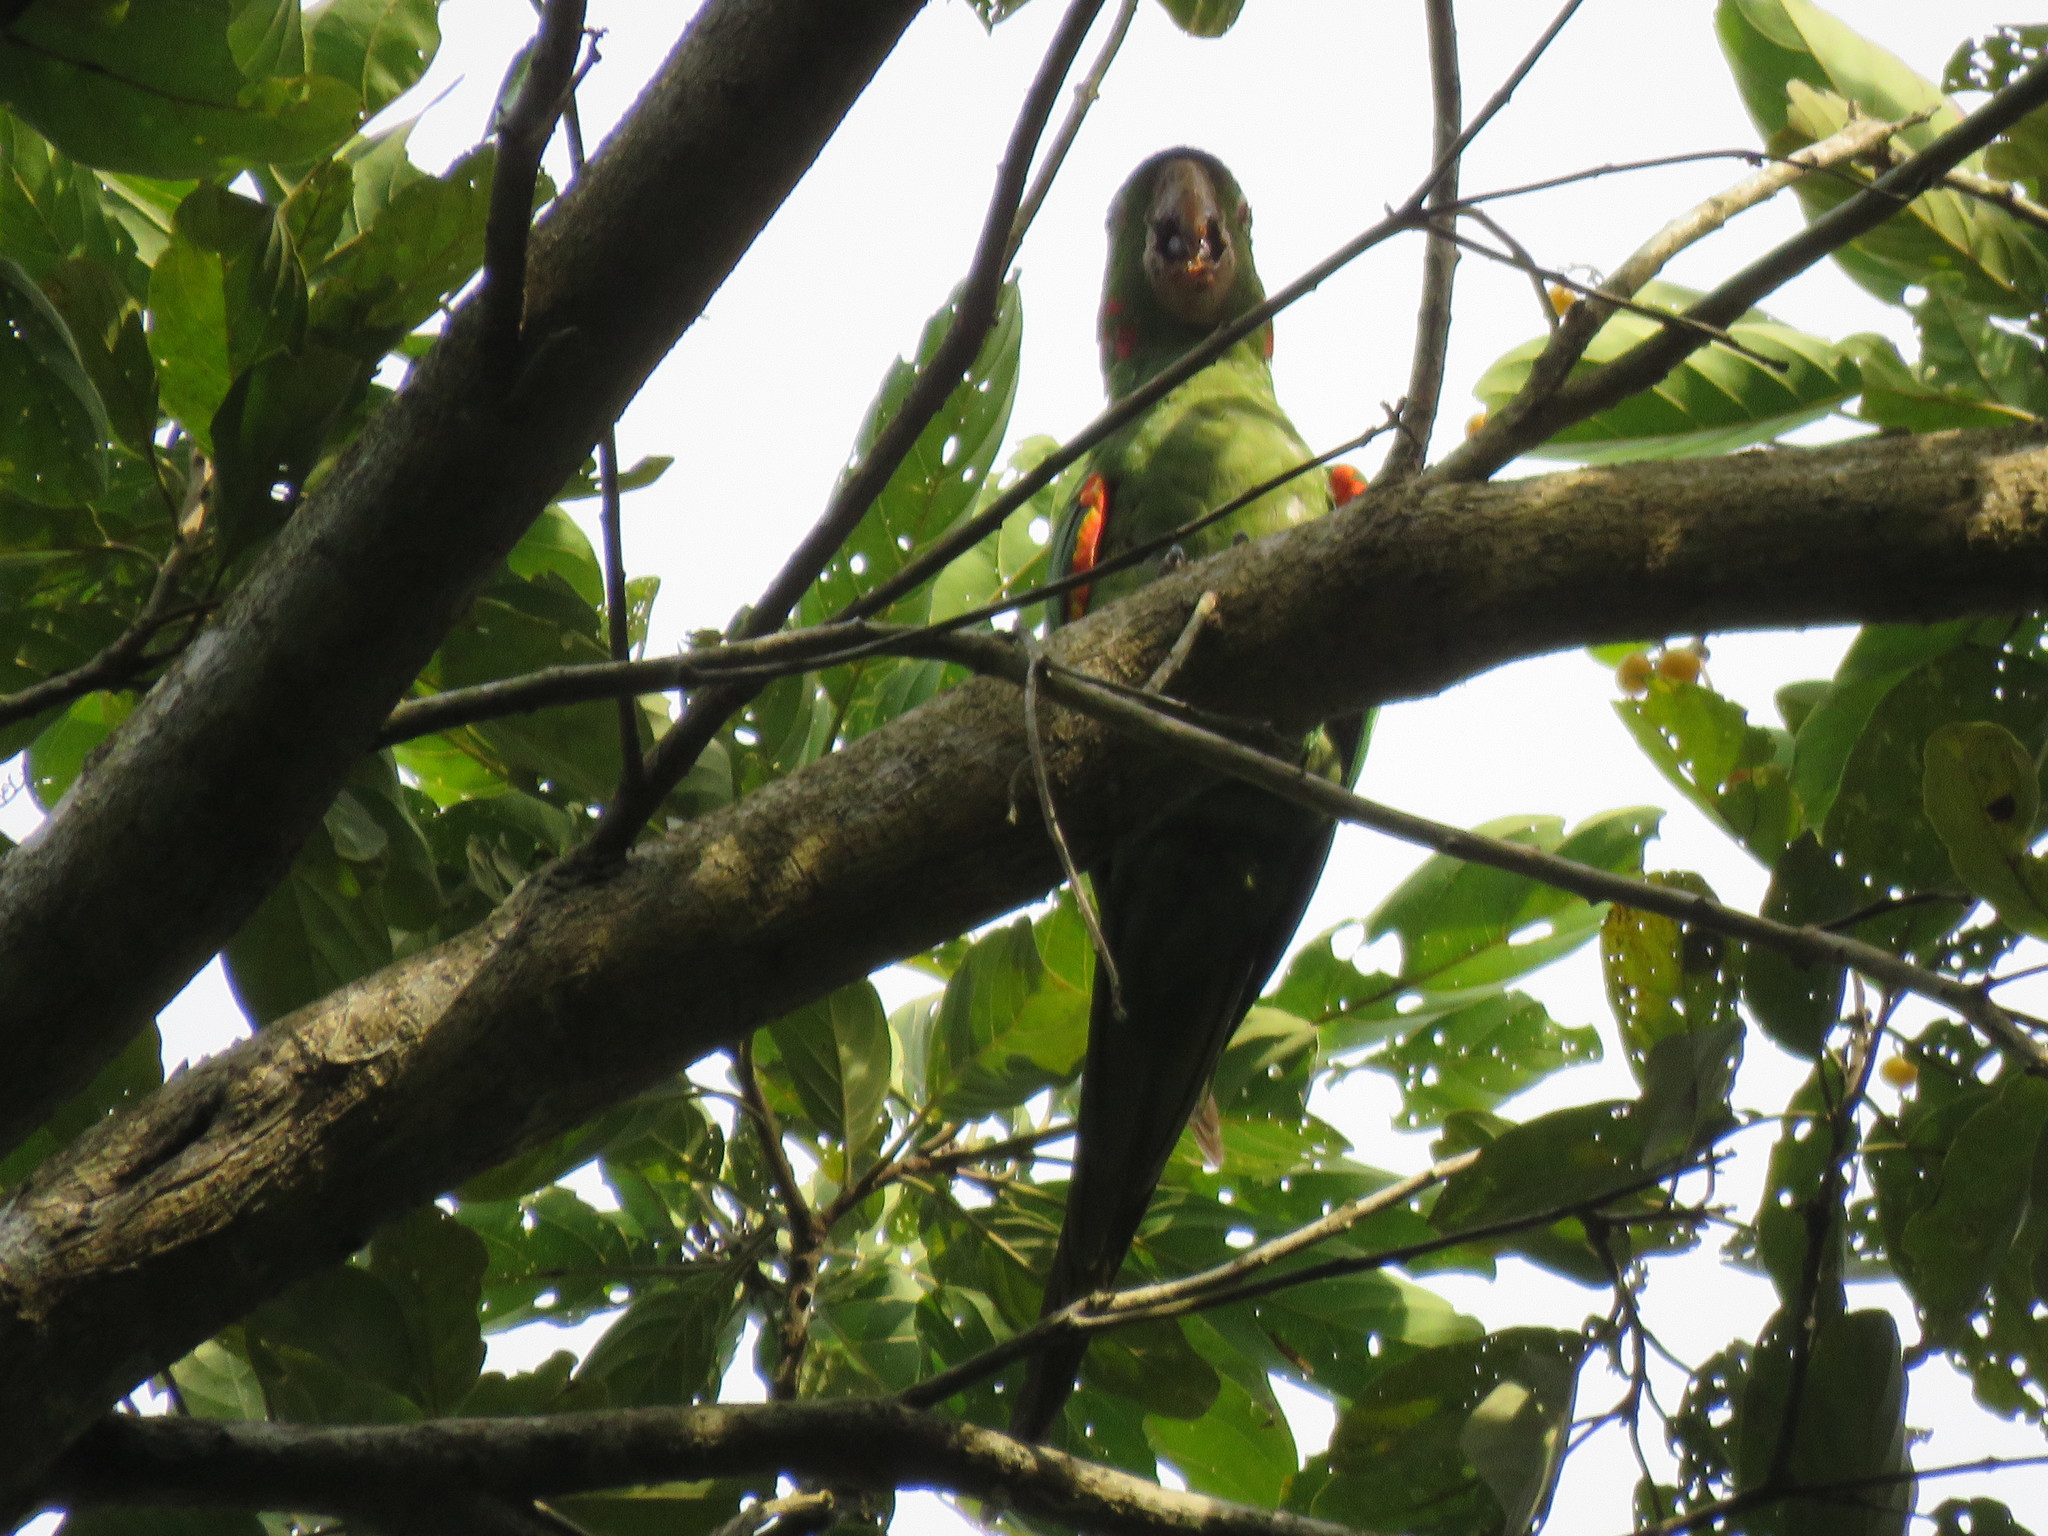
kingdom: Animalia
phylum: Chordata
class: Aves
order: Psittaciformes
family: Psittacidae
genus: Aratinga
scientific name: Aratinga leucophthalma
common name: White-eyed parakeet
